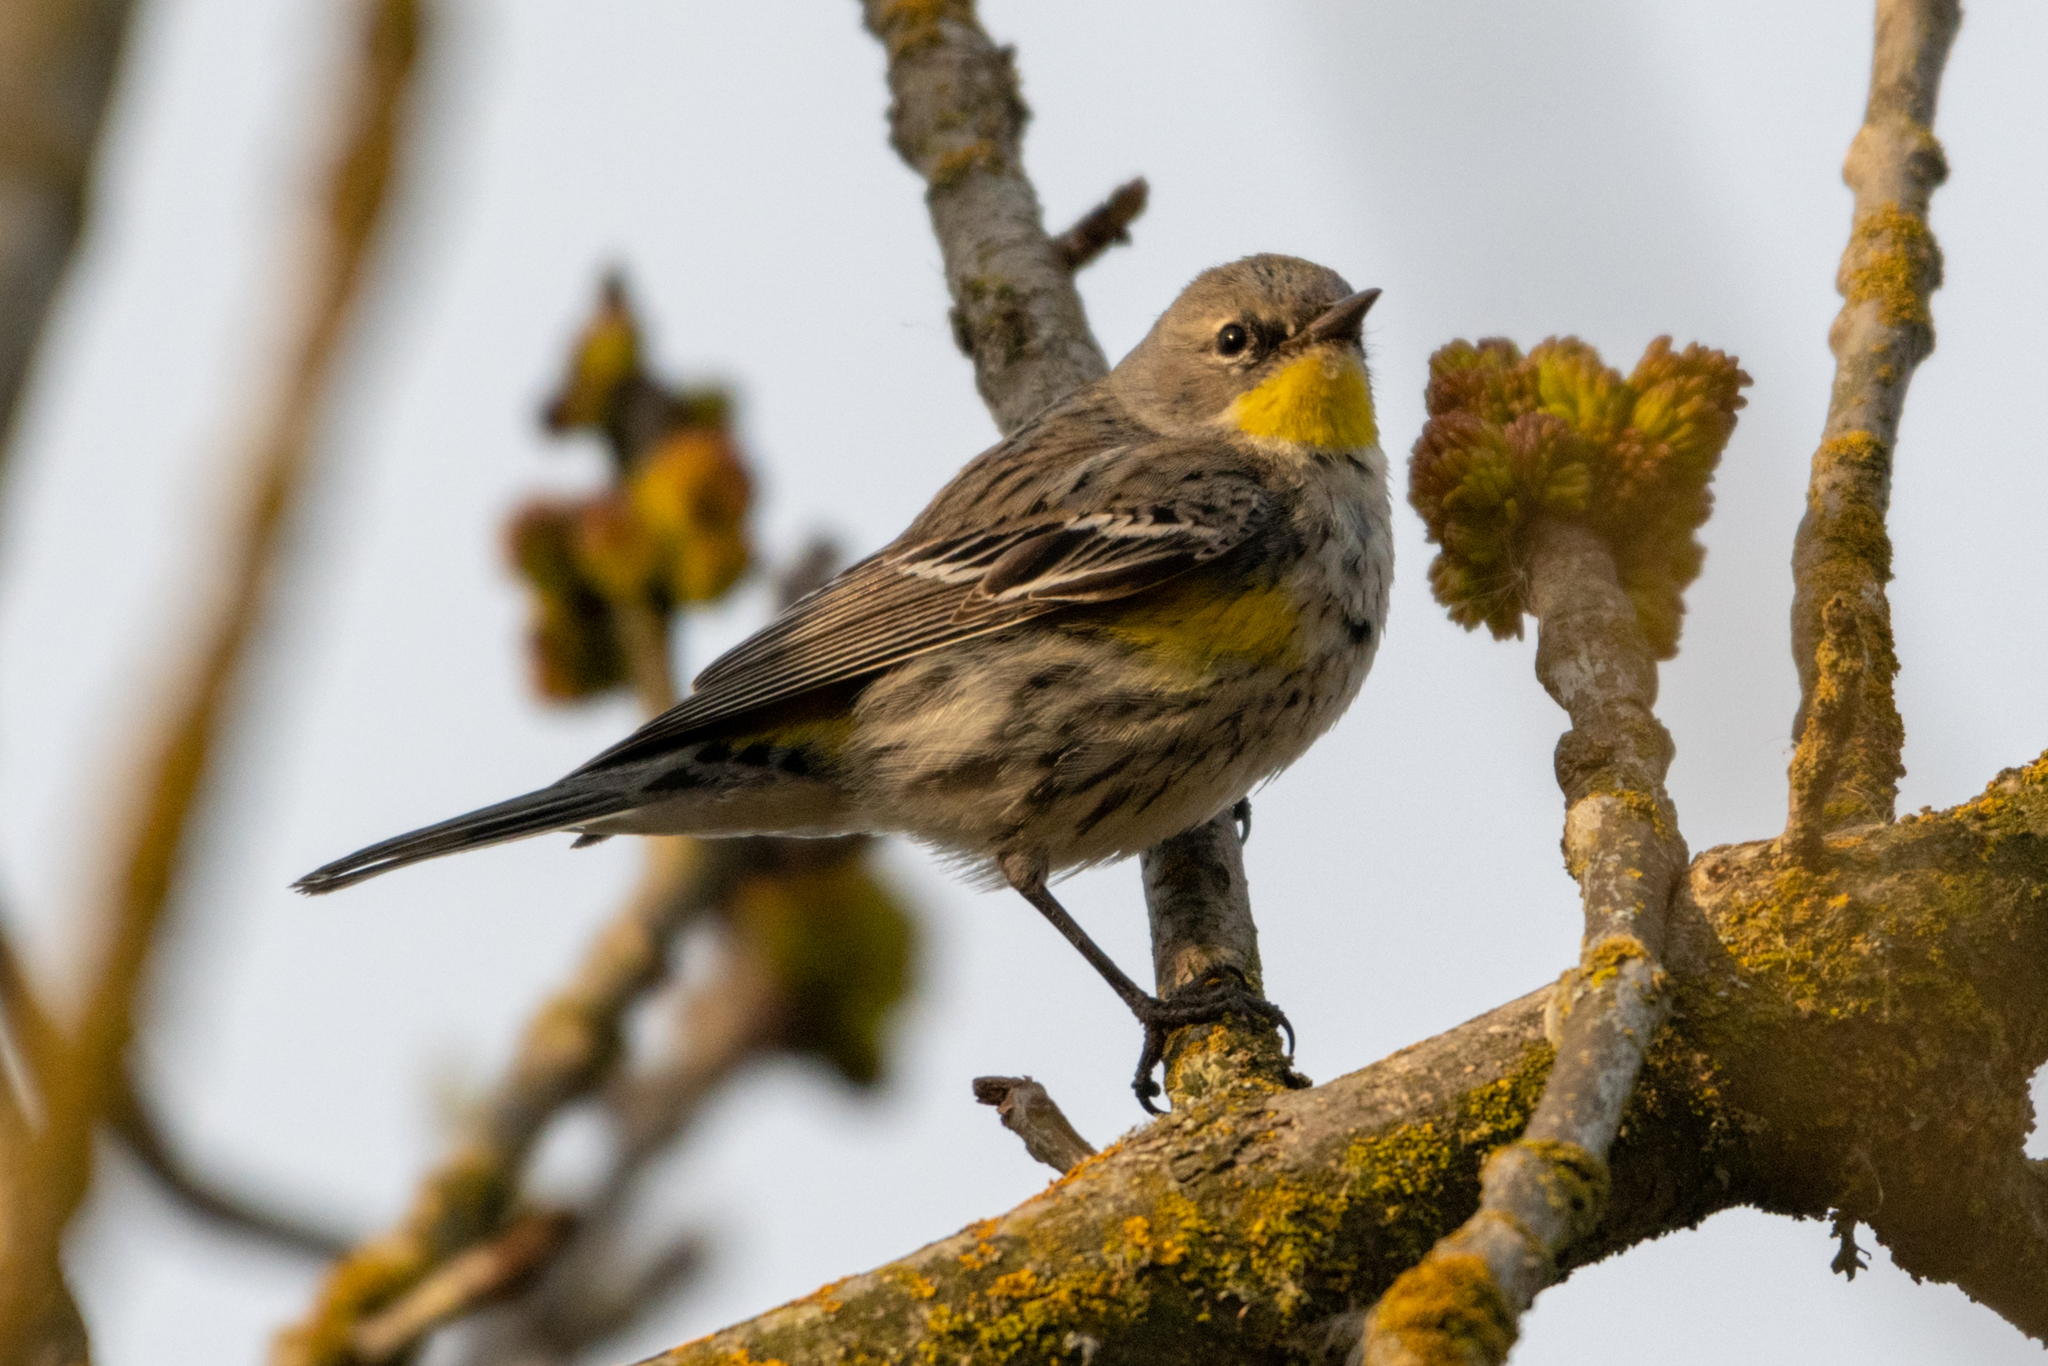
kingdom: Animalia
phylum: Chordata
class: Aves
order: Passeriformes
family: Parulidae
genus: Setophaga
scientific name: Setophaga coronata
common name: Myrtle warbler
